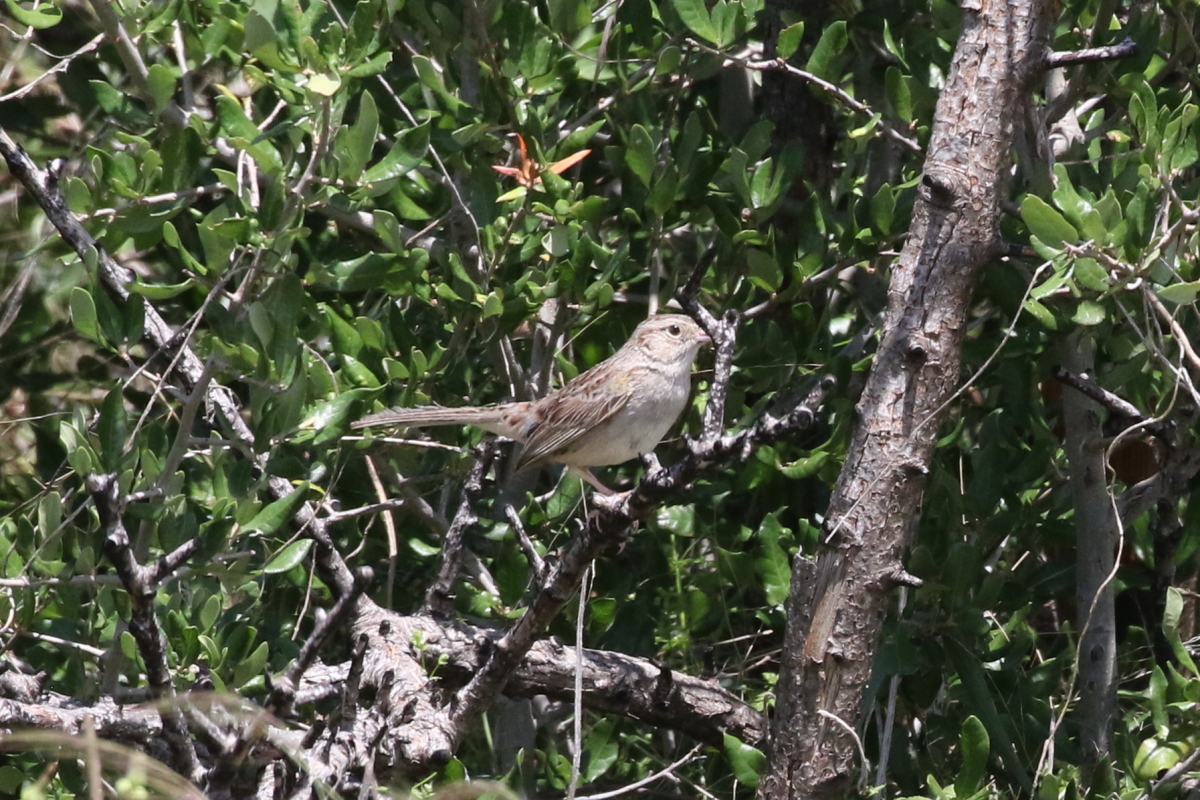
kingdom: Animalia
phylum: Chordata
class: Aves
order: Passeriformes
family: Passerellidae
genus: Peucaea
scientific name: Peucaea cassinii
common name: Cassin's sparrow
